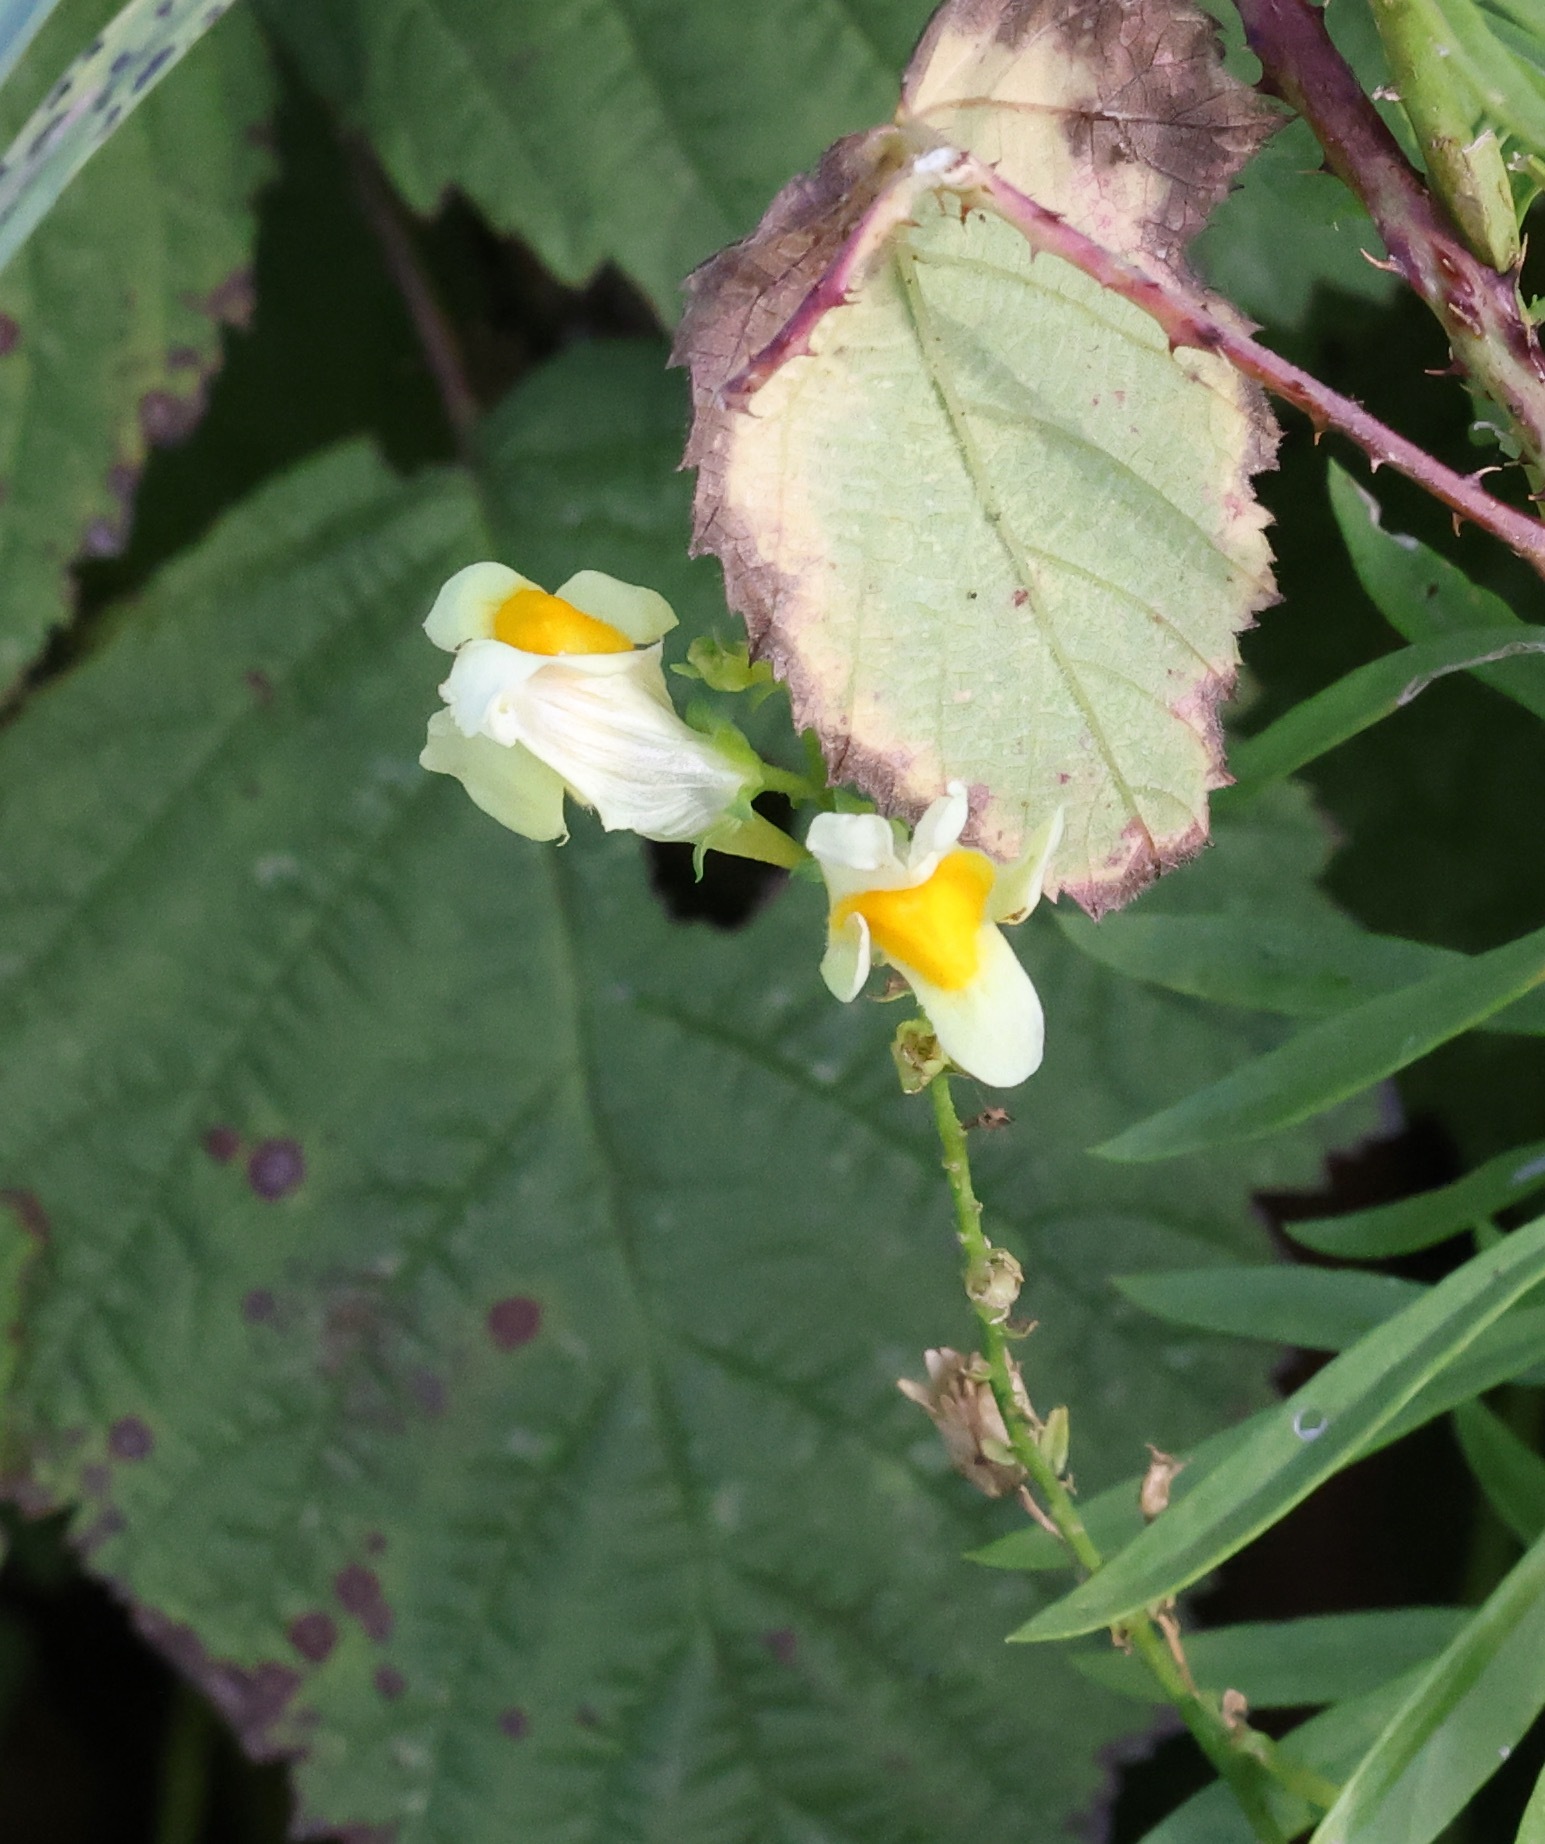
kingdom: Plantae
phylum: Tracheophyta
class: Magnoliopsida
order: Lamiales
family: Plantaginaceae
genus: Linaria
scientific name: Linaria vulgaris
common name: Butter and eggs
